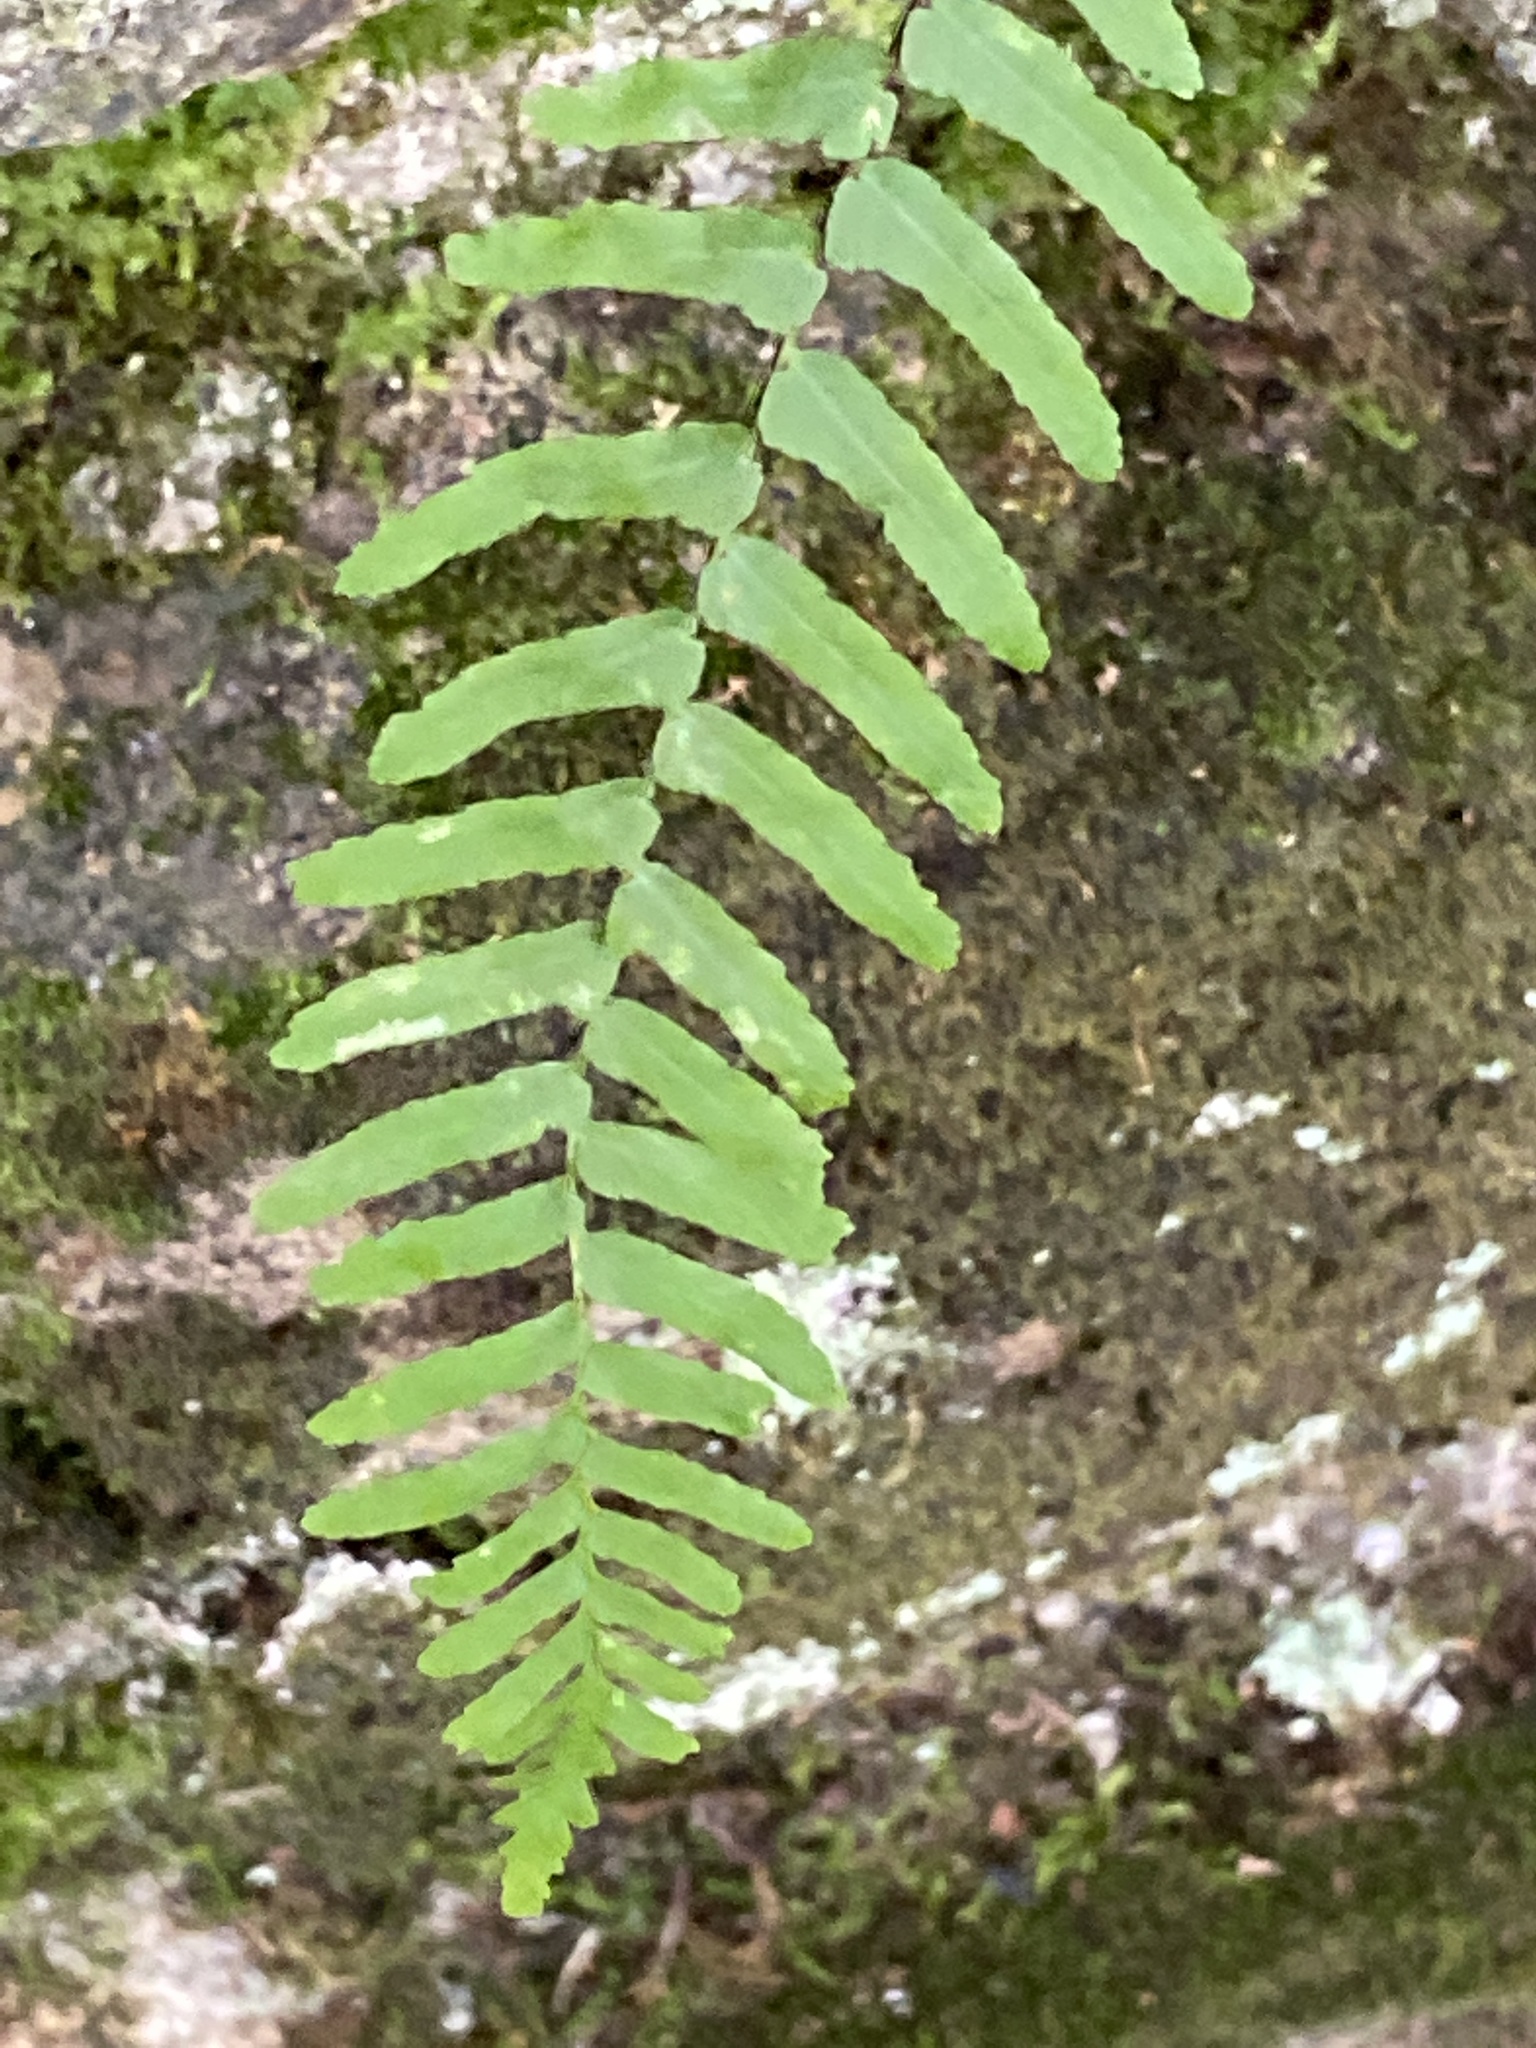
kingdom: Plantae
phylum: Tracheophyta
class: Polypodiopsida
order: Polypodiales
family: Aspleniaceae
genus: Asplenium
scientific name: Asplenium platyneuron
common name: Ebony spleenwort
